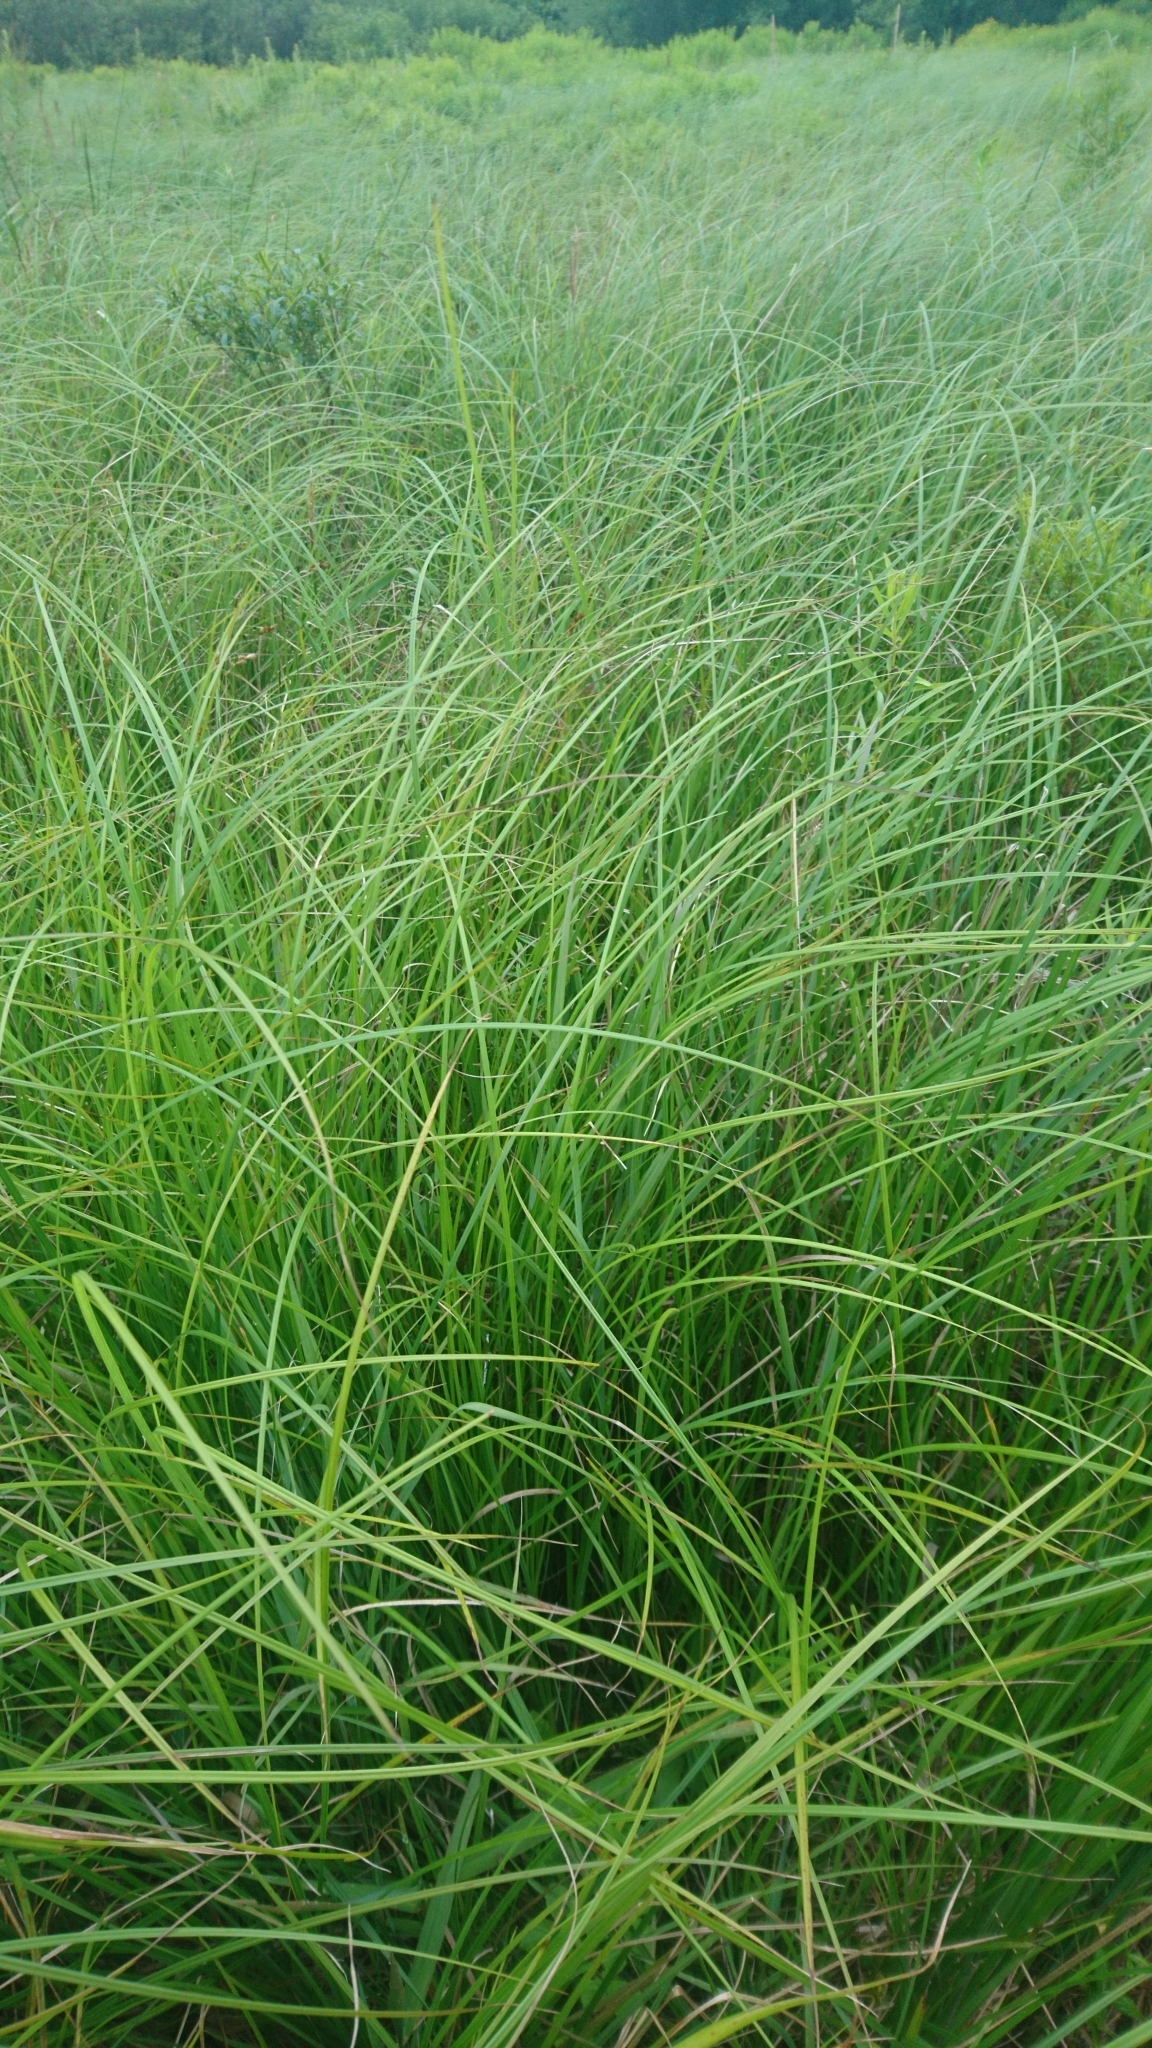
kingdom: Plantae
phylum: Tracheophyta
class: Liliopsida
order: Poales
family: Cyperaceae
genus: Carex
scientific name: Carex stricta
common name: Hummock sedge
